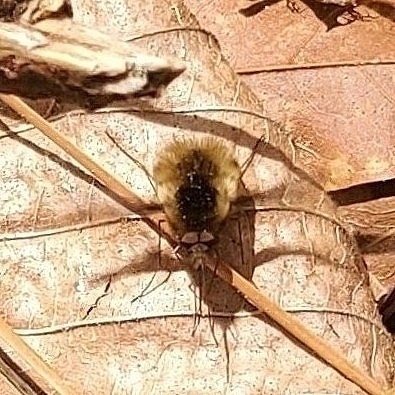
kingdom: Animalia
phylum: Arthropoda
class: Insecta
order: Diptera
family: Bombyliidae
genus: Bombylius
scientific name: Bombylius major
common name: Bee fly
